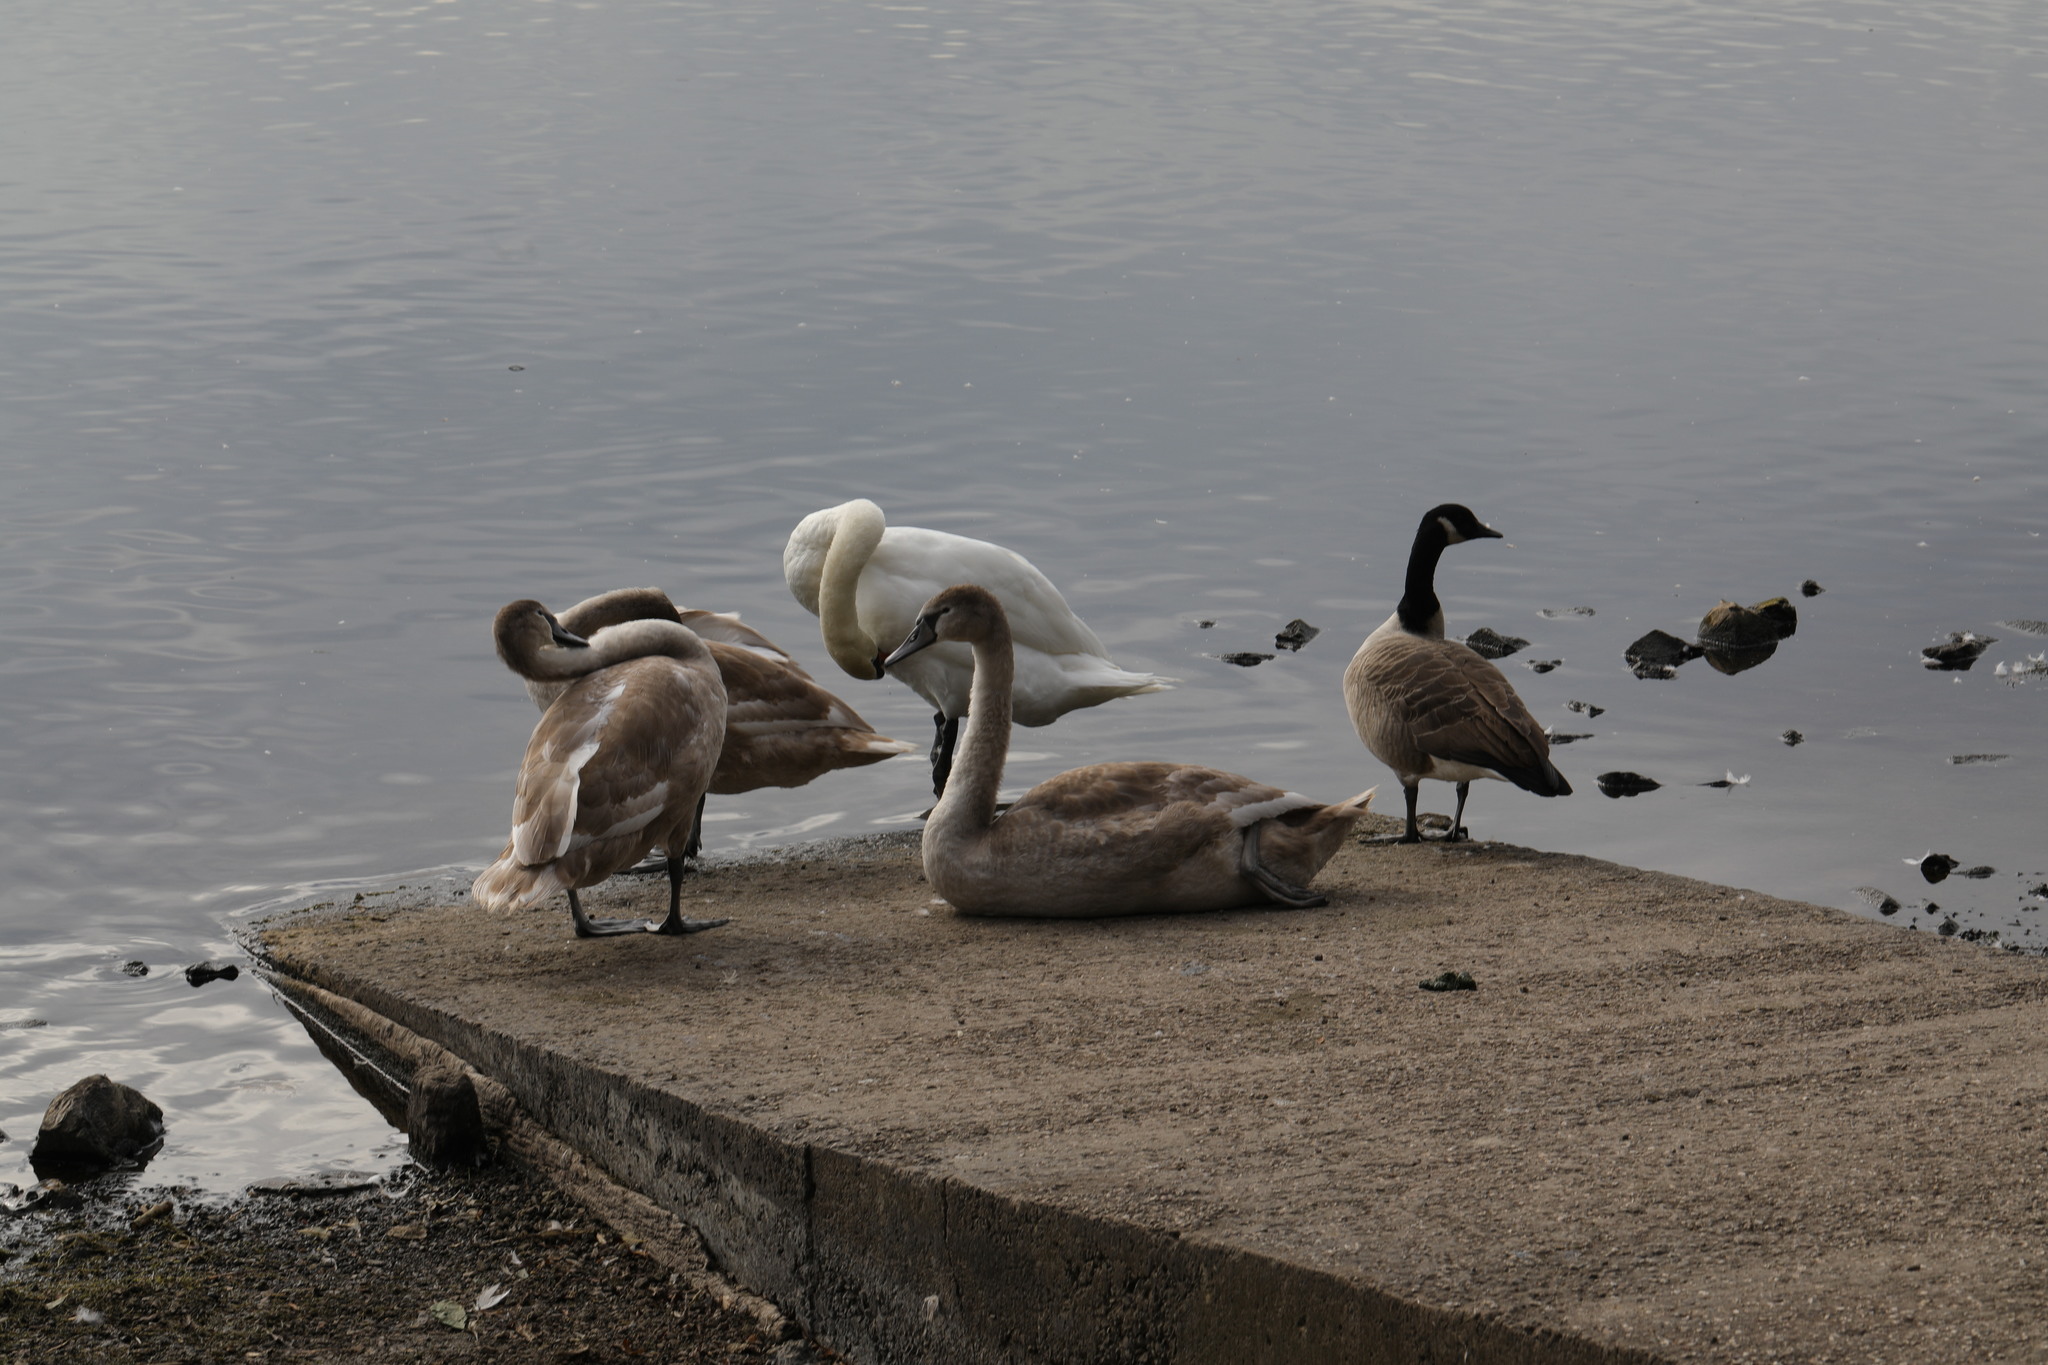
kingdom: Animalia
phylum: Chordata
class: Aves
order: Anseriformes
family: Anatidae
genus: Cygnus
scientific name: Cygnus olor
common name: Mute swan
